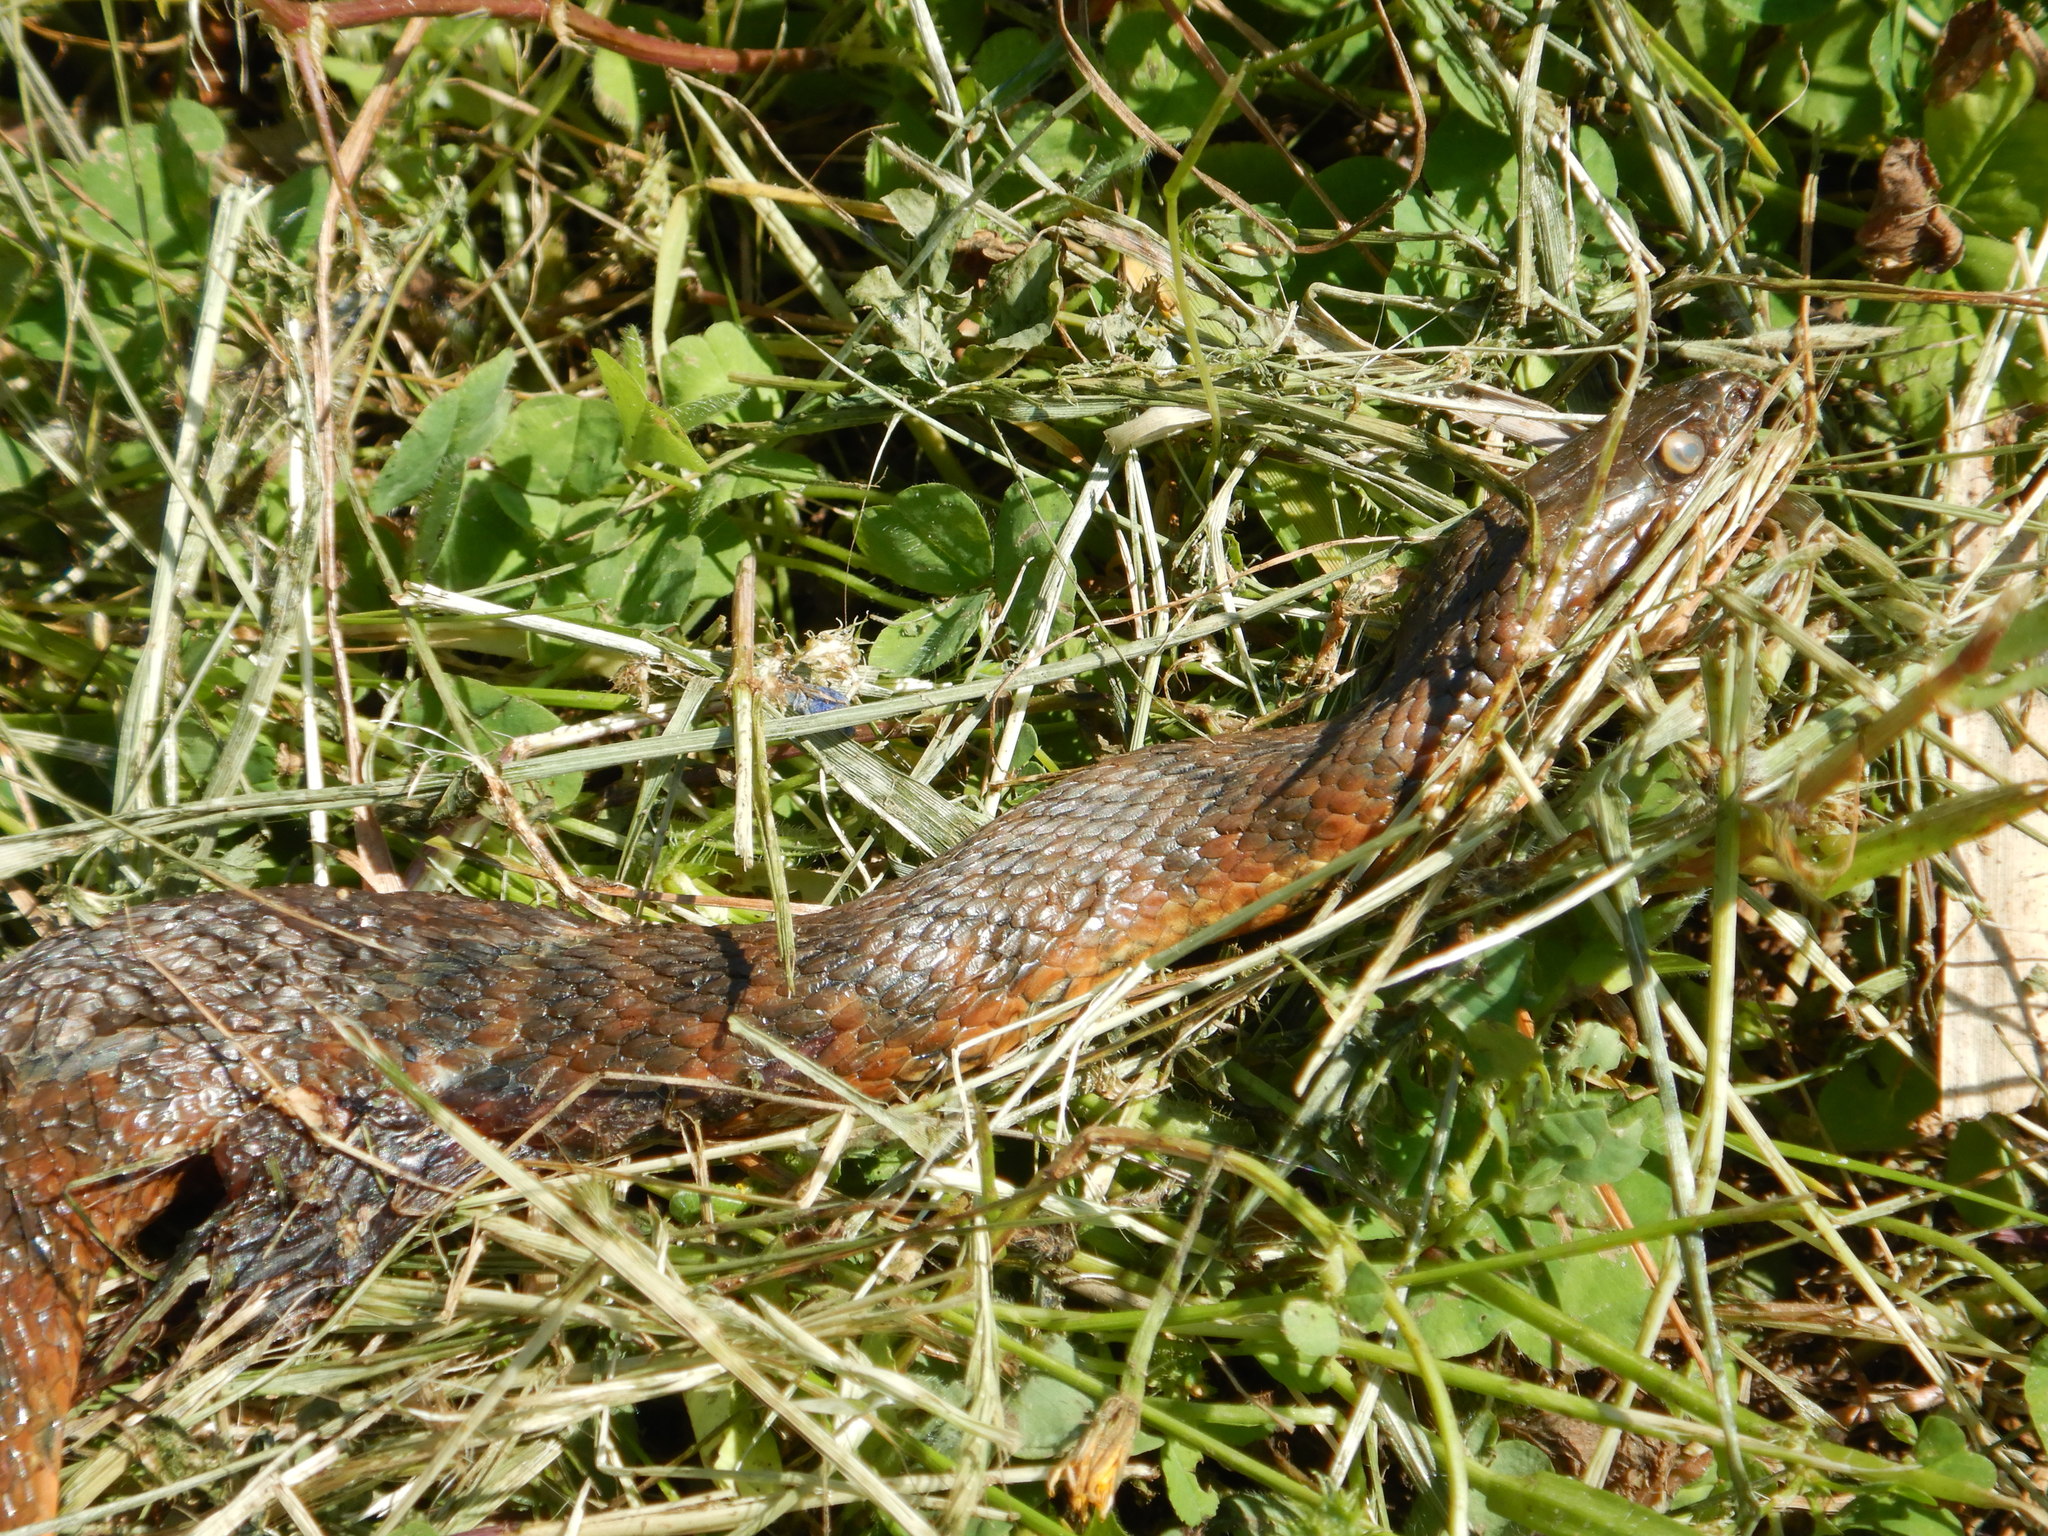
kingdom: Animalia
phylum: Chordata
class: Squamata
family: Colubridae
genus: Natrix
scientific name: Natrix maura
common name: Viperine water snake
